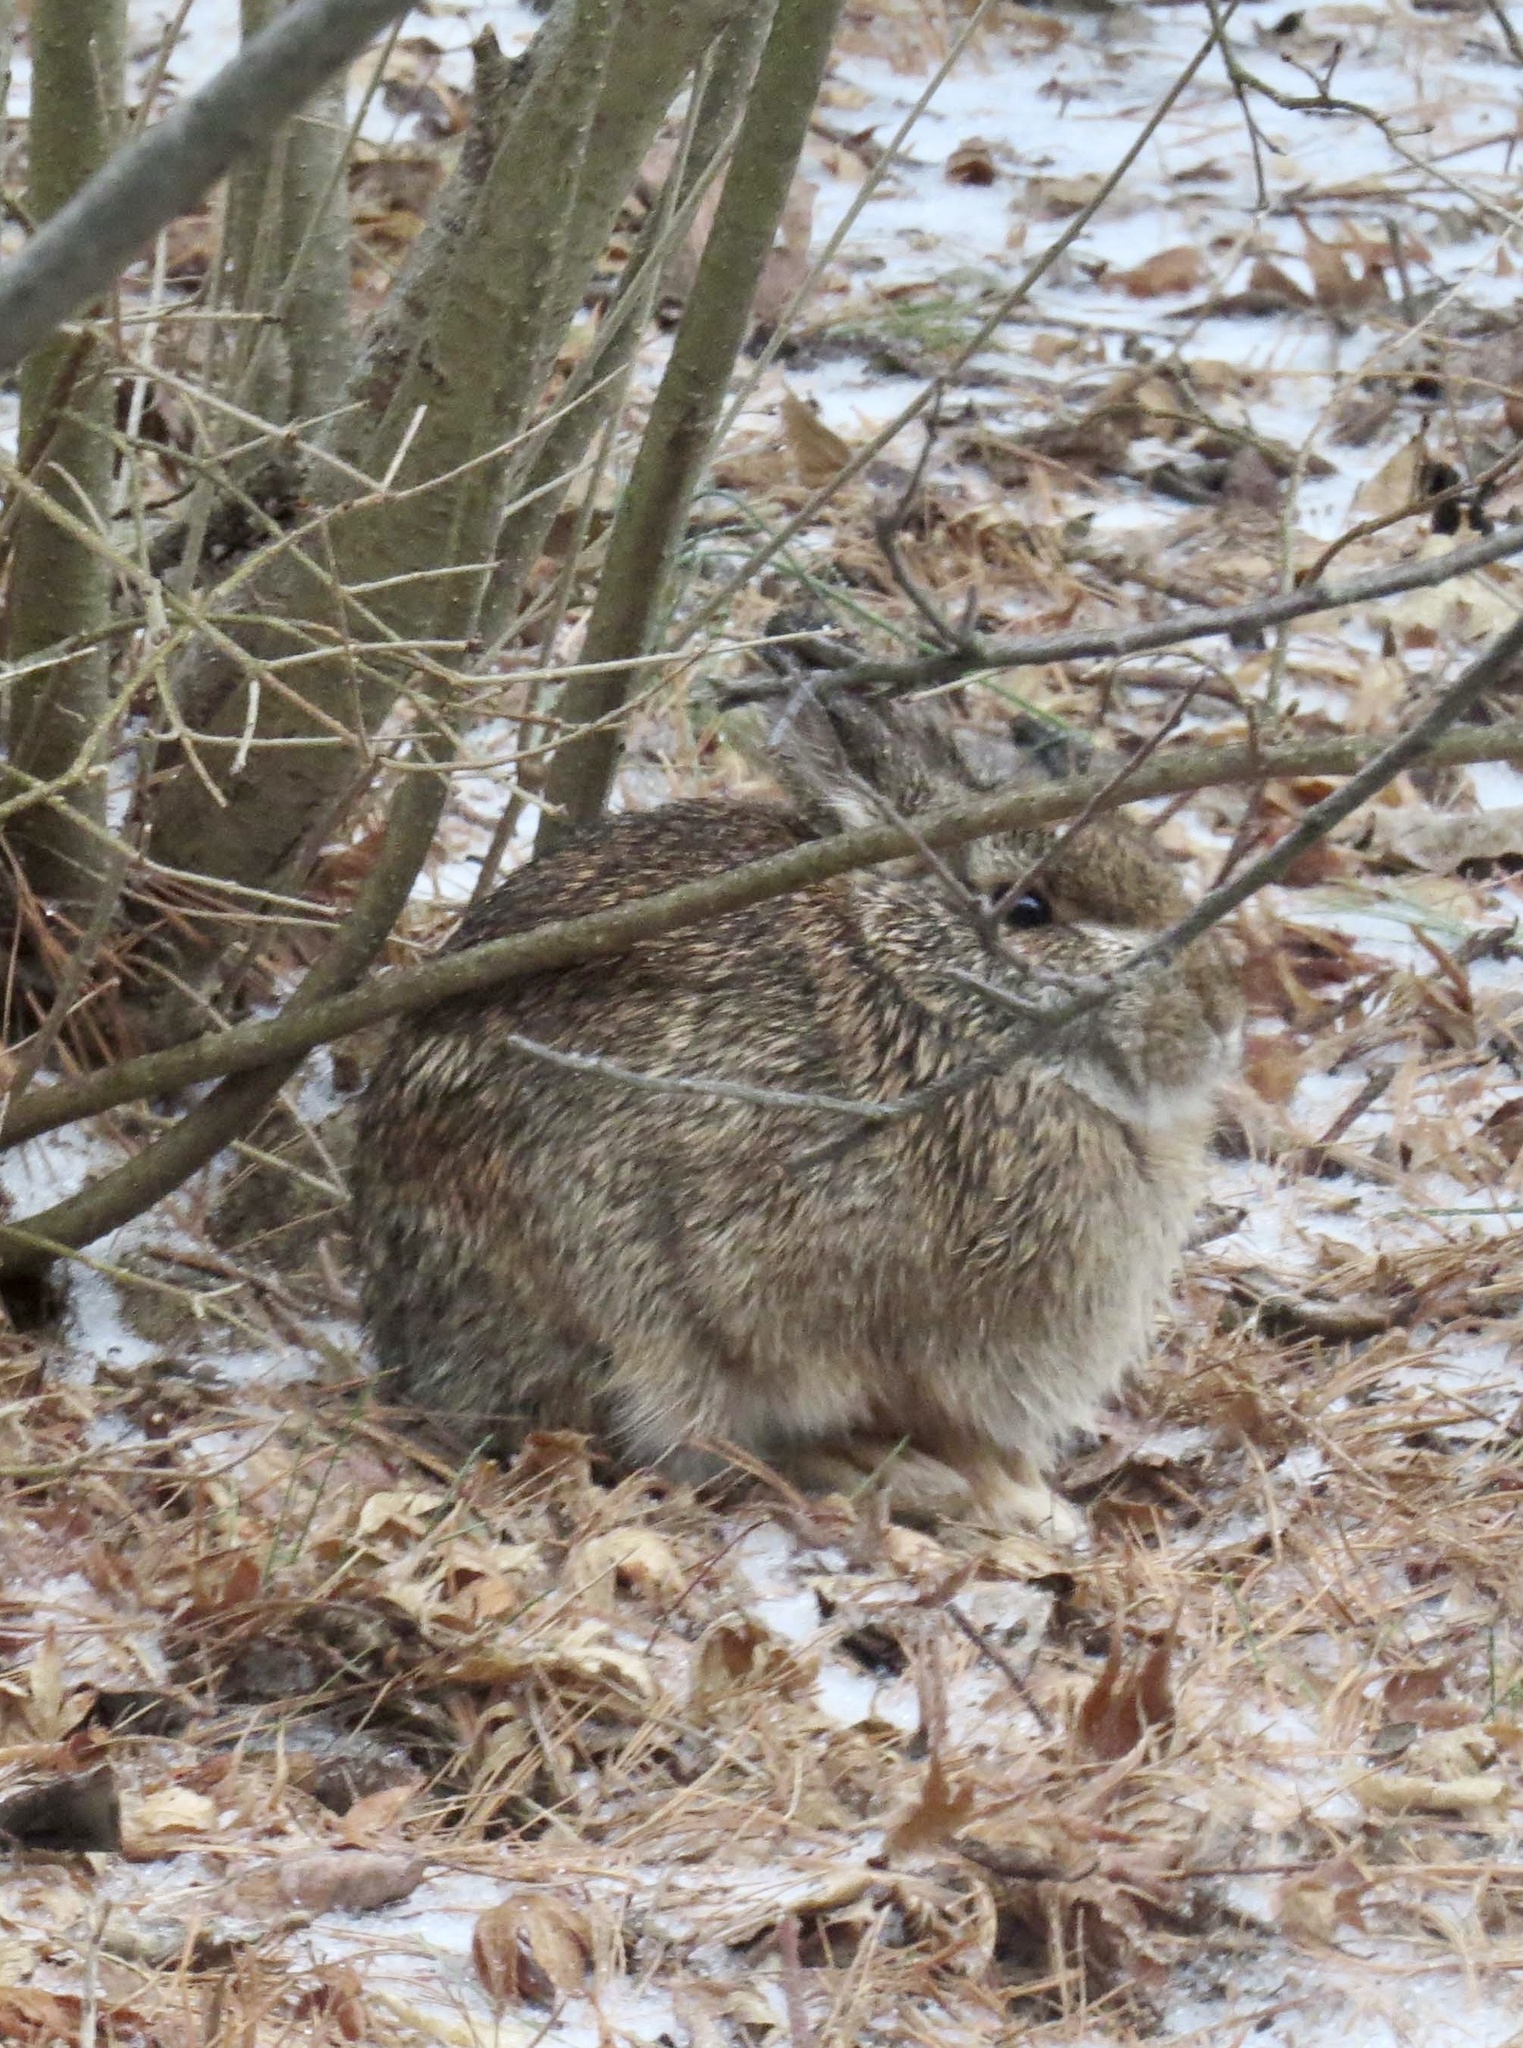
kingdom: Animalia
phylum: Chordata
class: Mammalia
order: Lagomorpha
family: Leporidae
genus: Sylvilagus
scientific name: Sylvilagus floridanus
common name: Eastern cottontail
